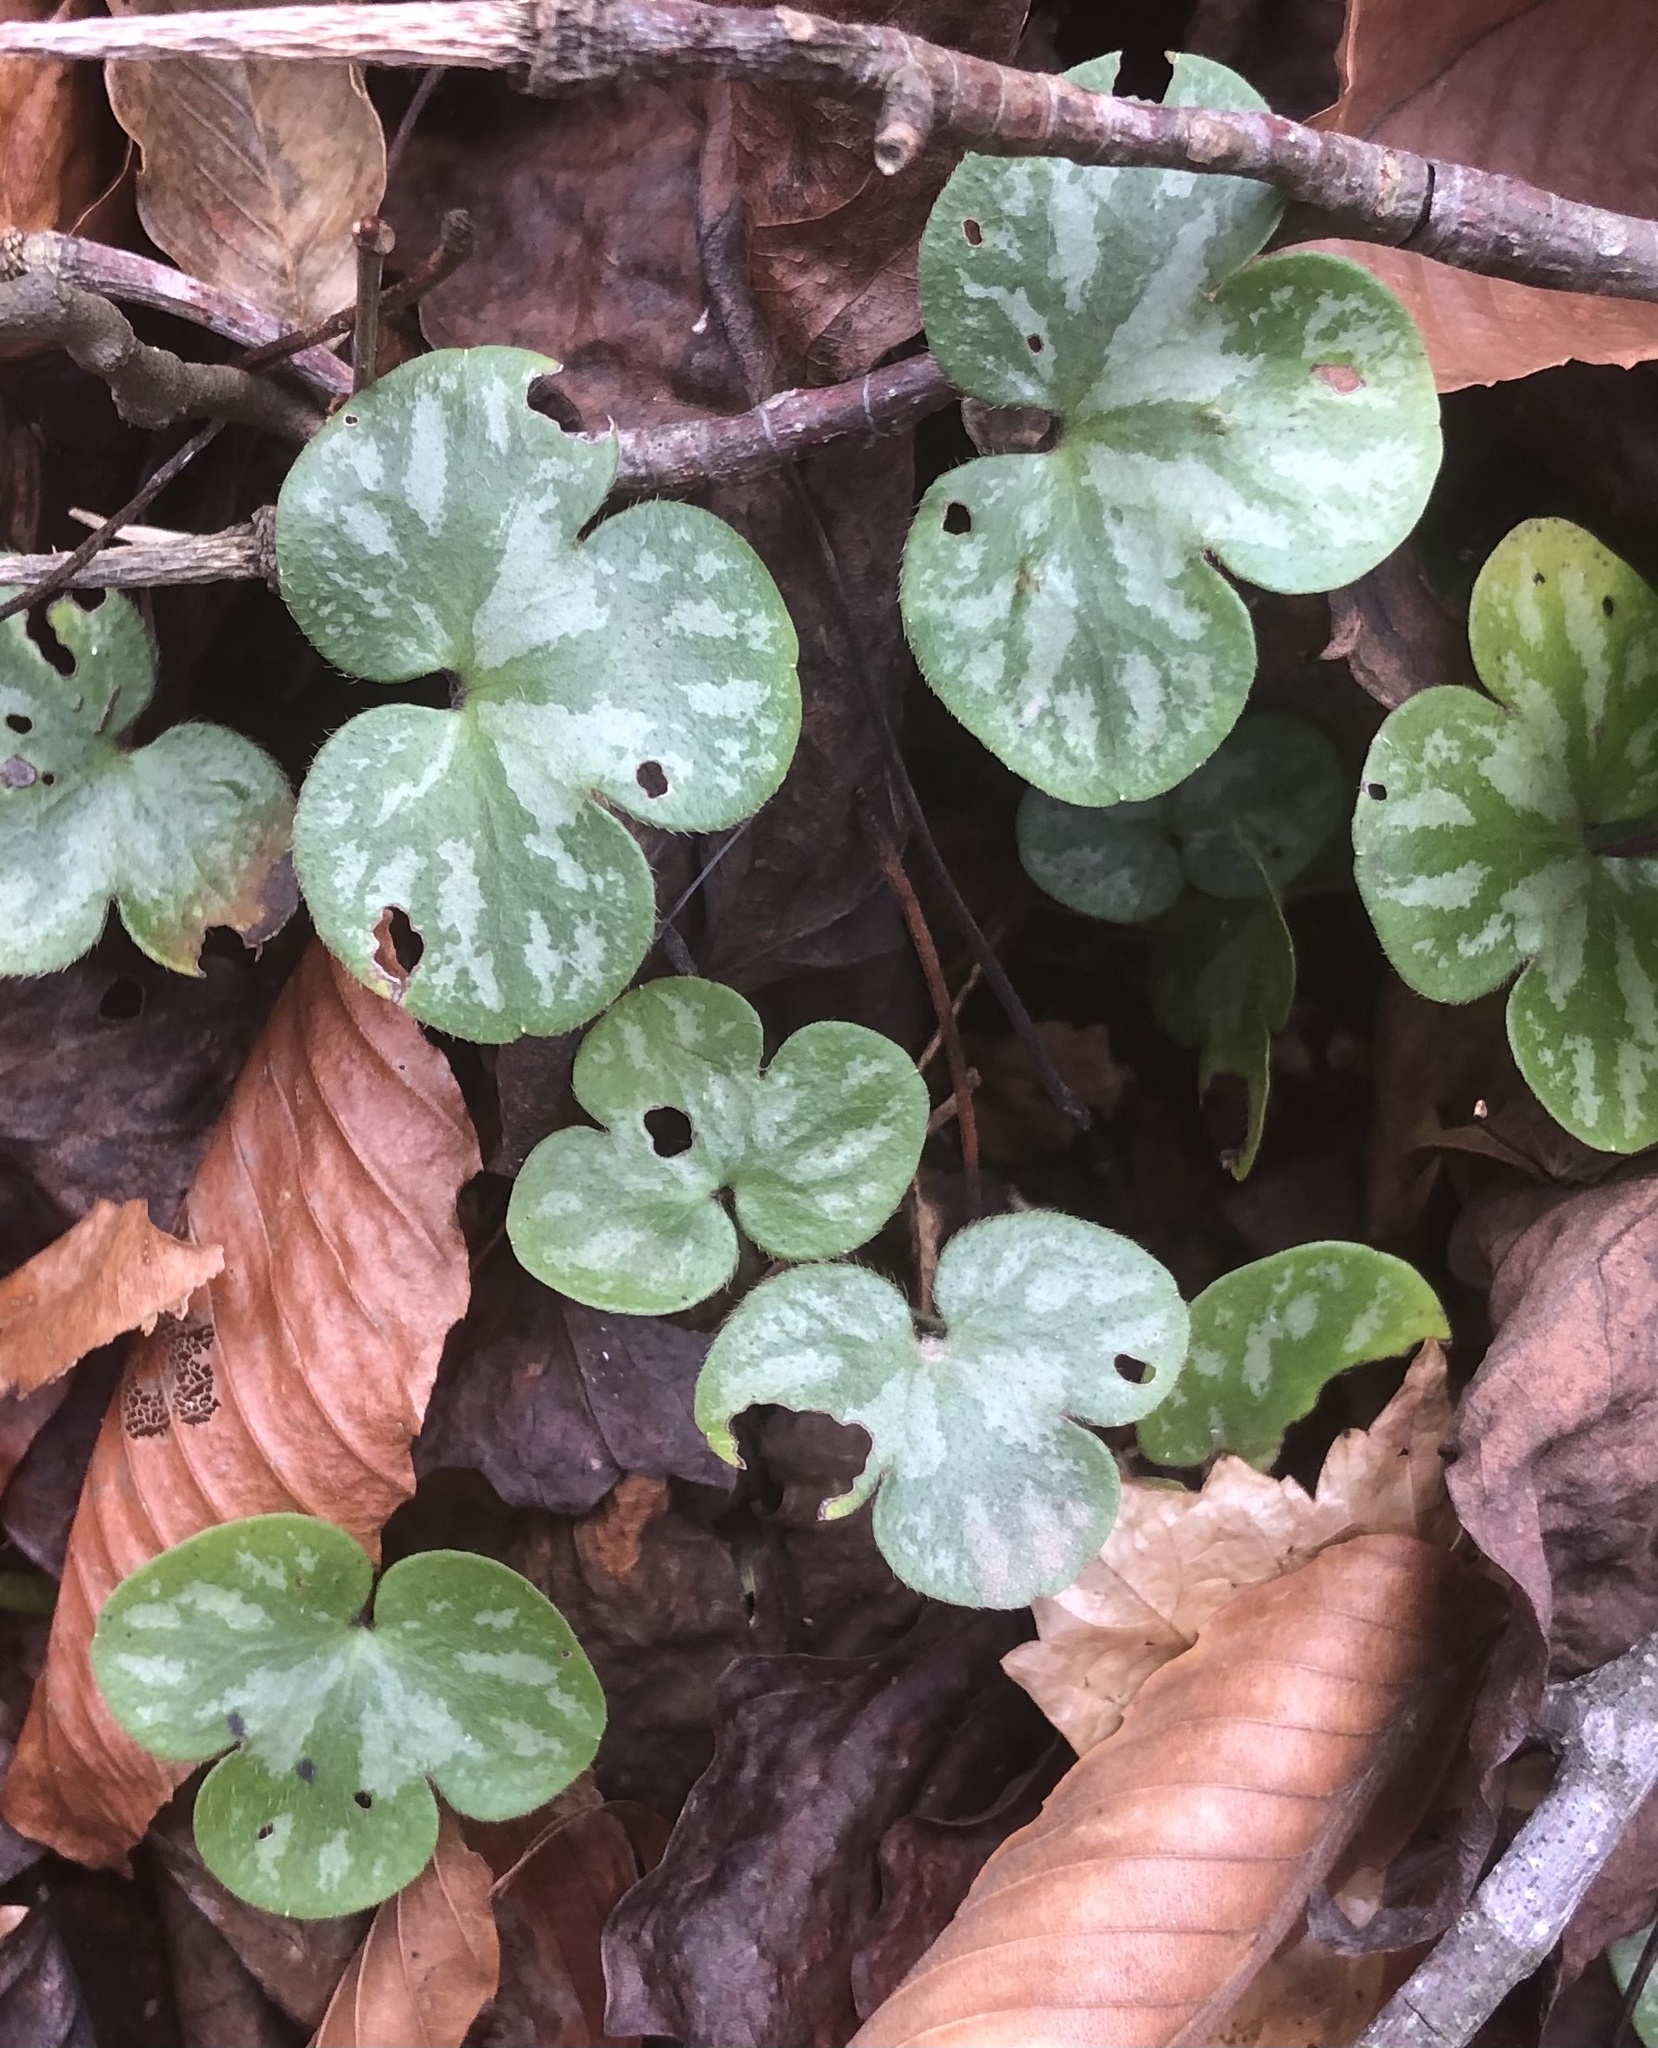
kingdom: Plantae
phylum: Tracheophyta
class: Magnoliopsida
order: Ranunculales
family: Ranunculaceae
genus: Hepatica
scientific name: Hepatica americana
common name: American hepatica
